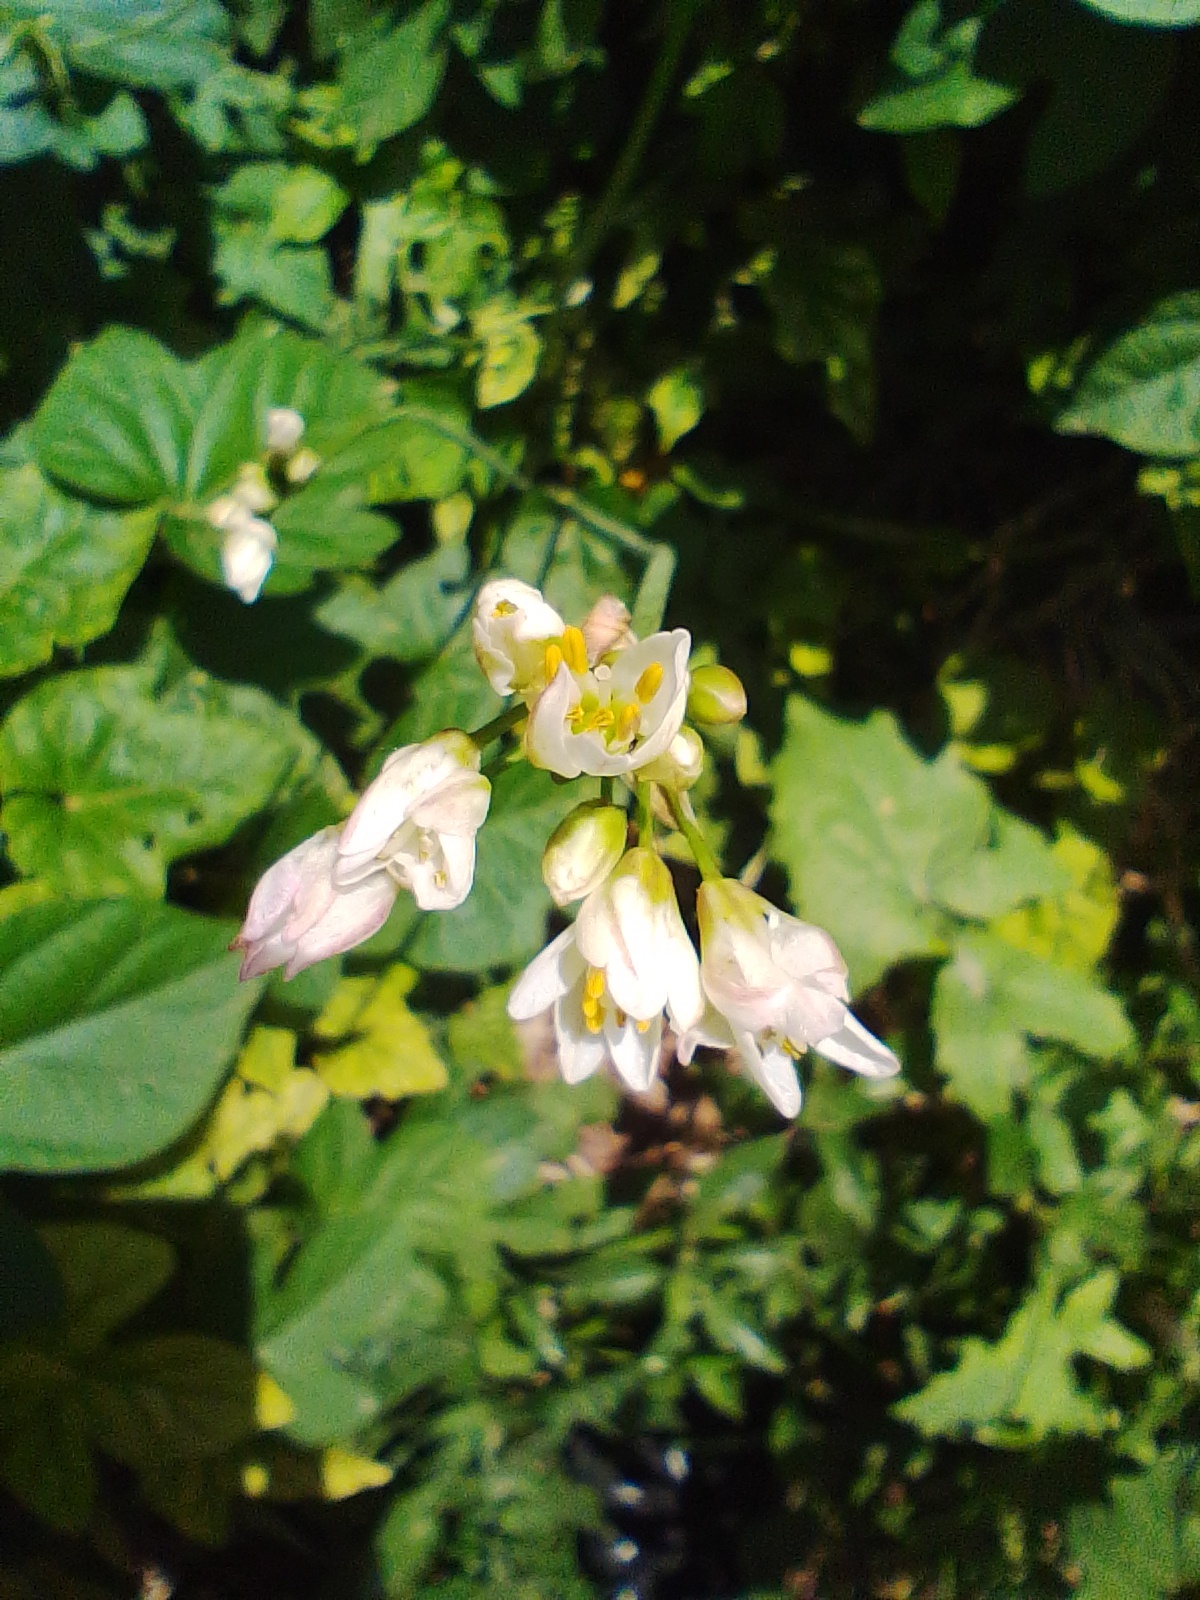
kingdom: Plantae
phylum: Tracheophyta
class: Liliopsida
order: Asparagales
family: Amaryllidaceae
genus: Nothoscordum
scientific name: Nothoscordum gracile
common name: Slender false garlic
